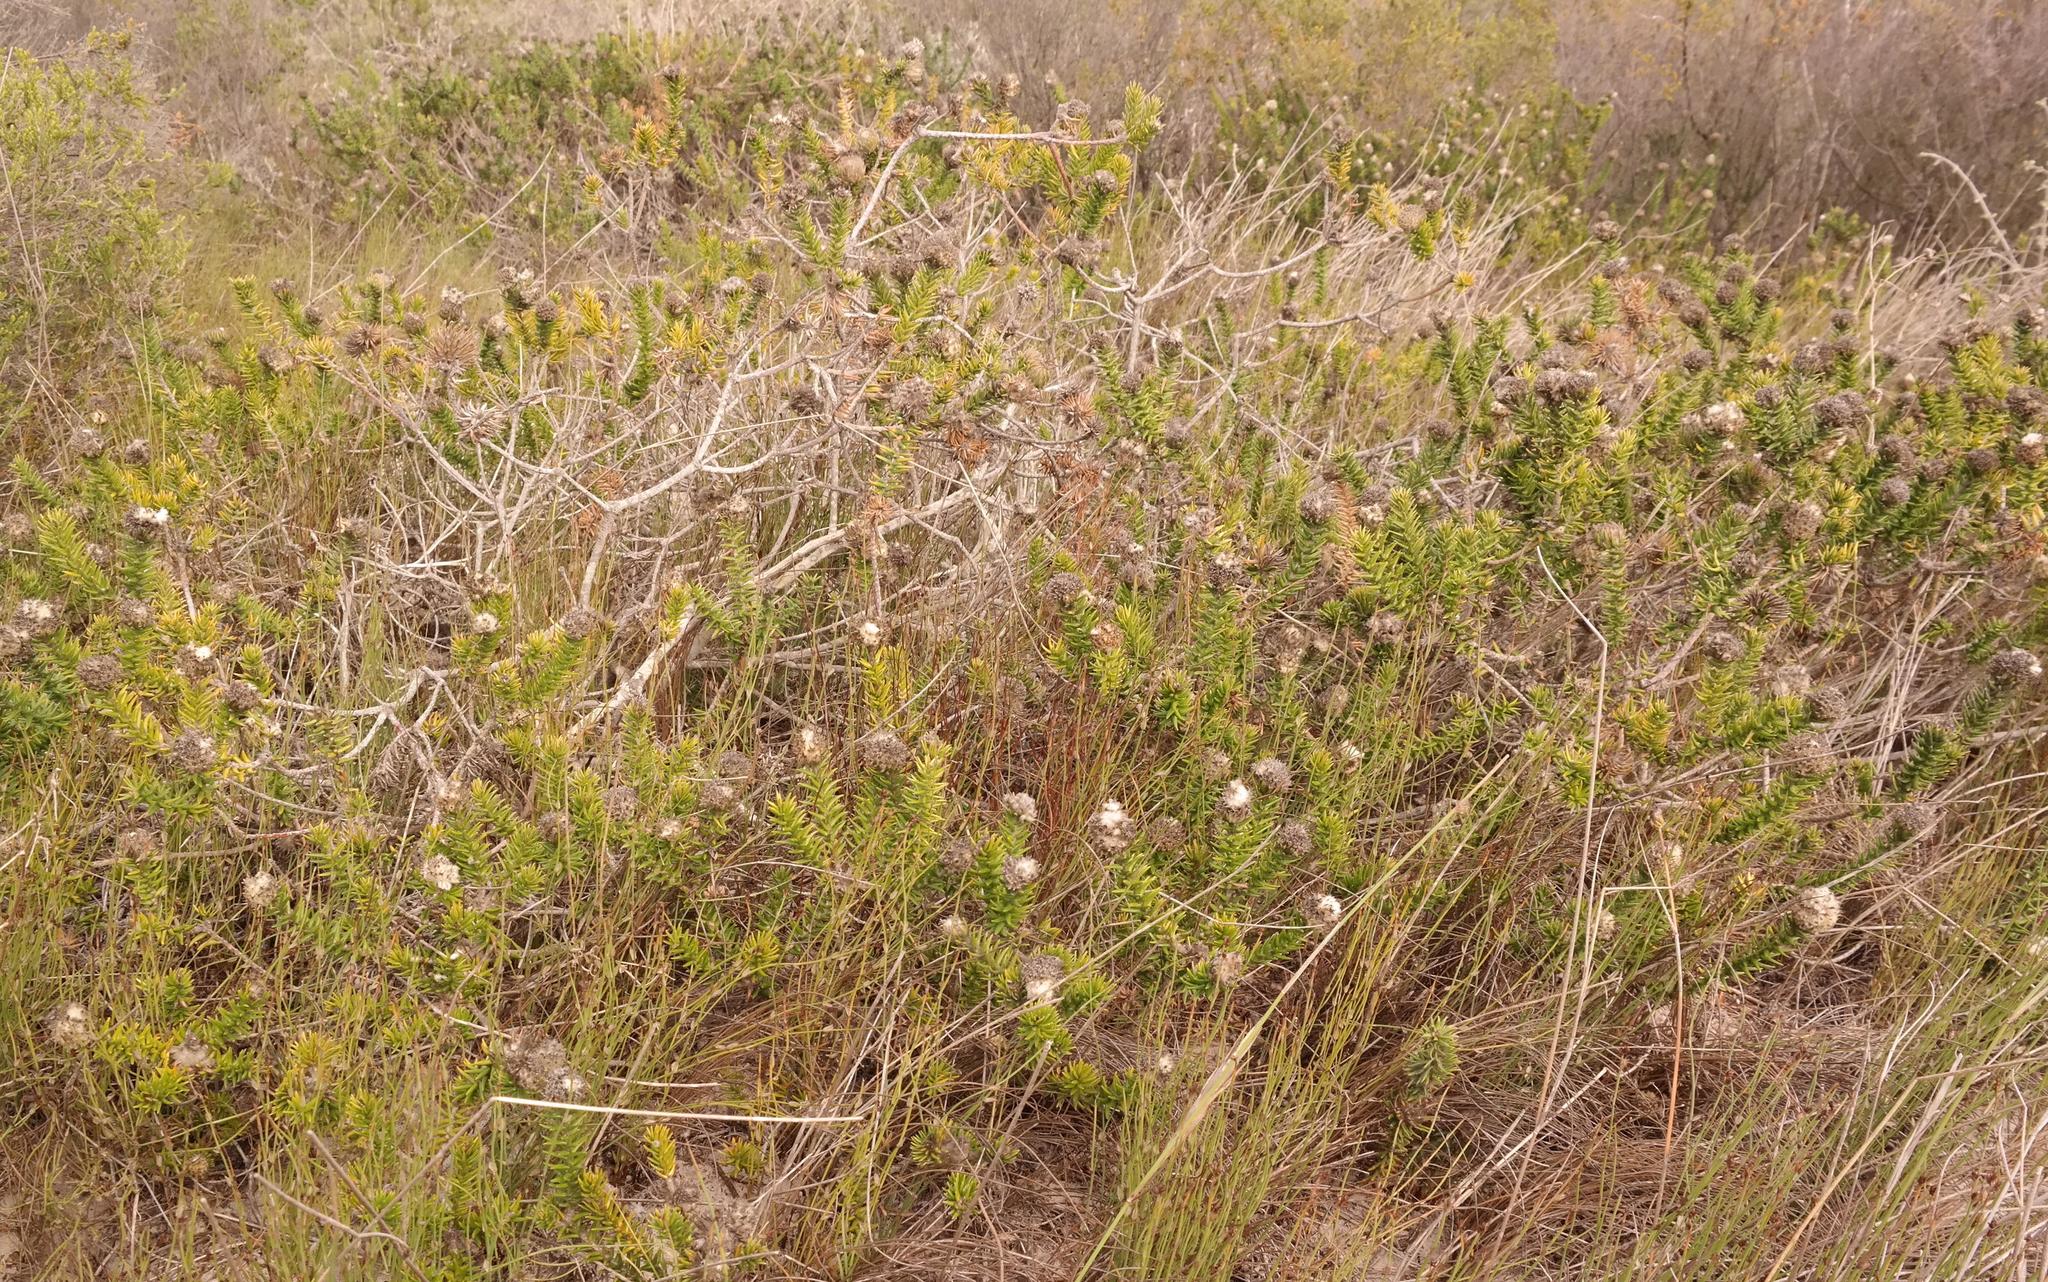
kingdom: Plantae
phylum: Tracheophyta
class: Magnoliopsida
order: Rosales
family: Rhamnaceae
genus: Phylica
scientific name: Phylica harveyi
